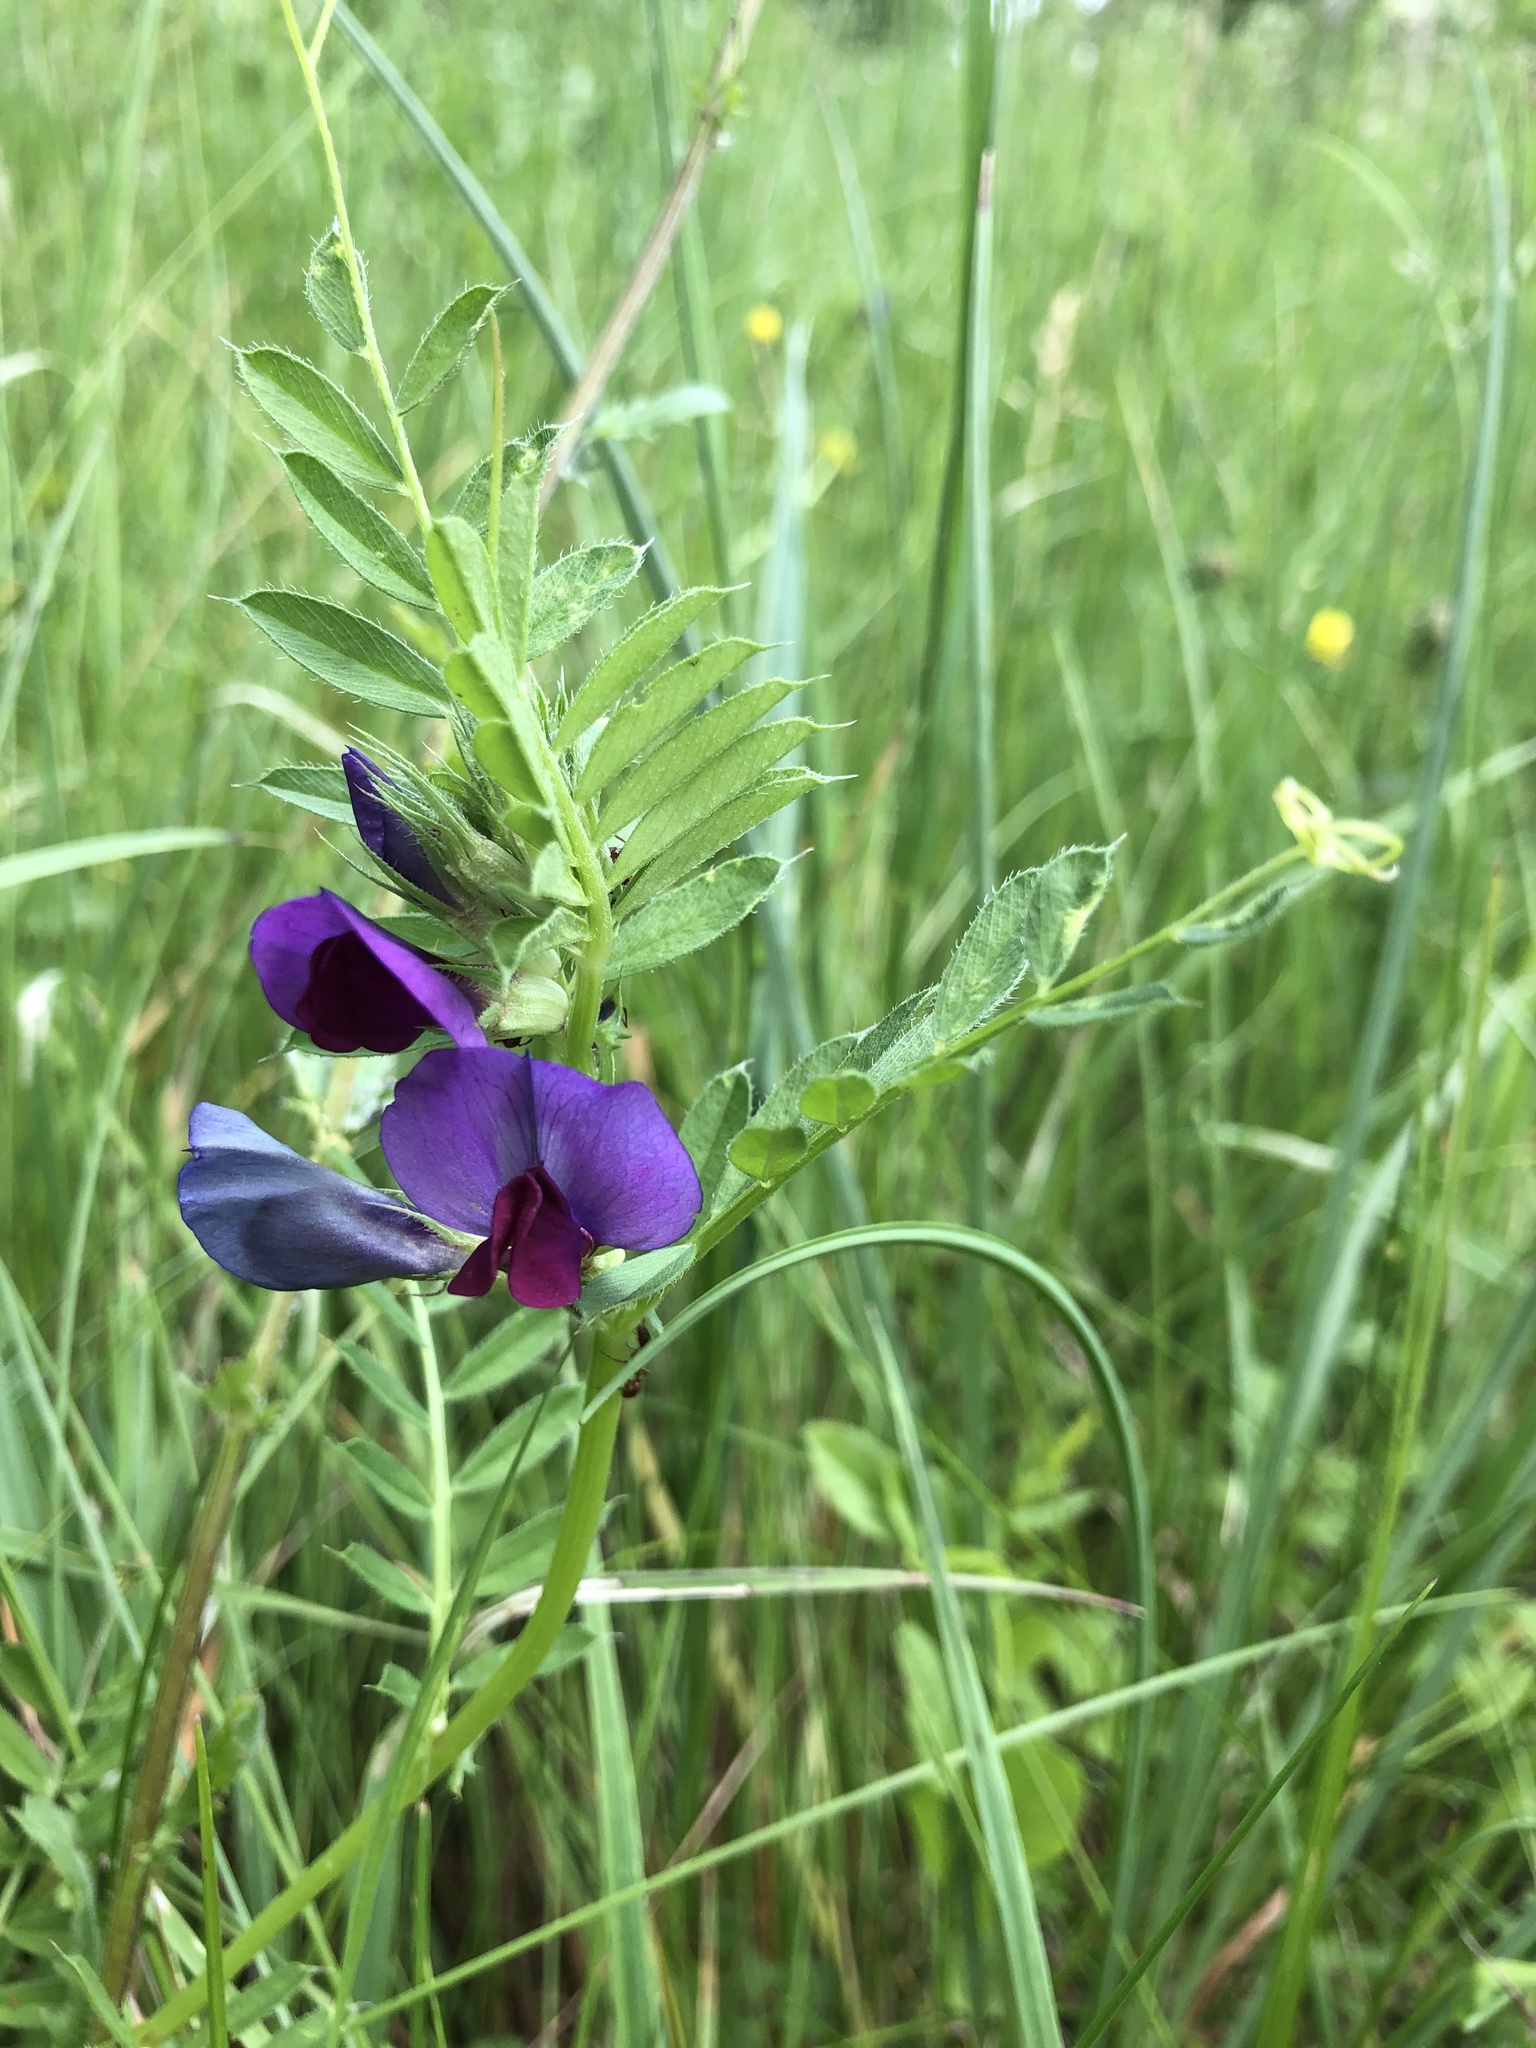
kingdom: Plantae
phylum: Tracheophyta
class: Magnoliopsida
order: Fabales
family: Fabaceae
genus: Vicia
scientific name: Vicia sativa
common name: Garden vetch
